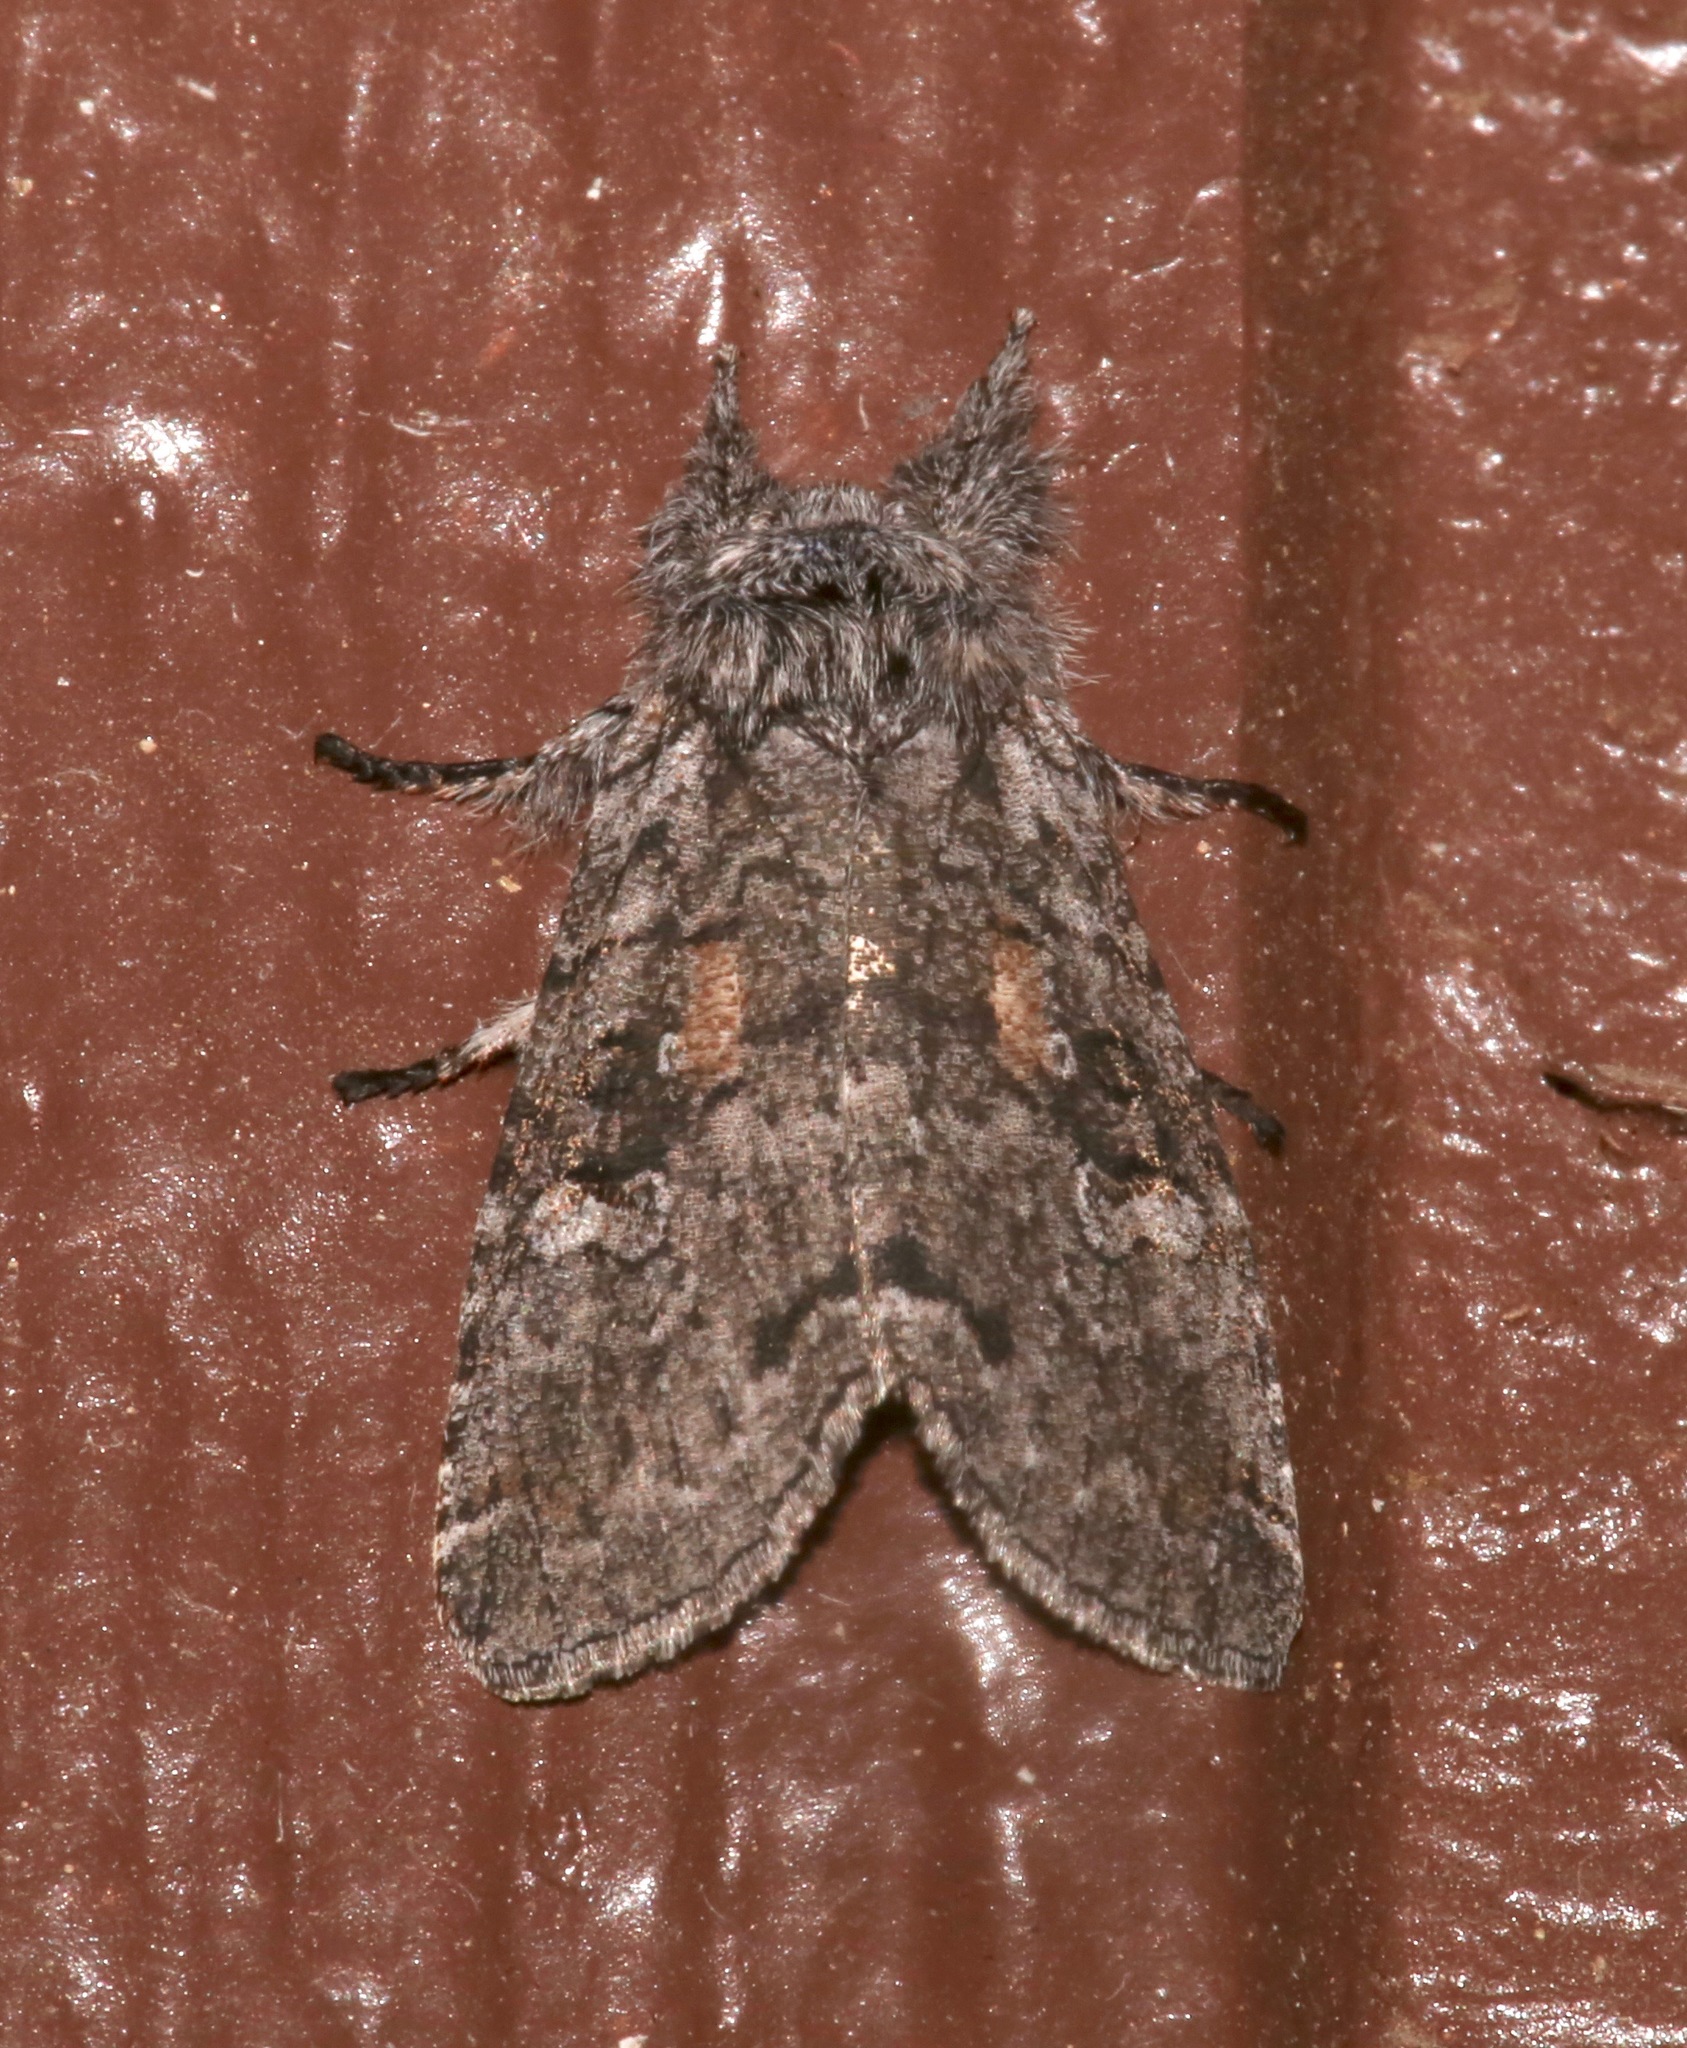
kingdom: Animalia
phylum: Arthropoda
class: Insecta
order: Lepidoptera
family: Noctuidae
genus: Meleneta
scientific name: Meleneta antennata
